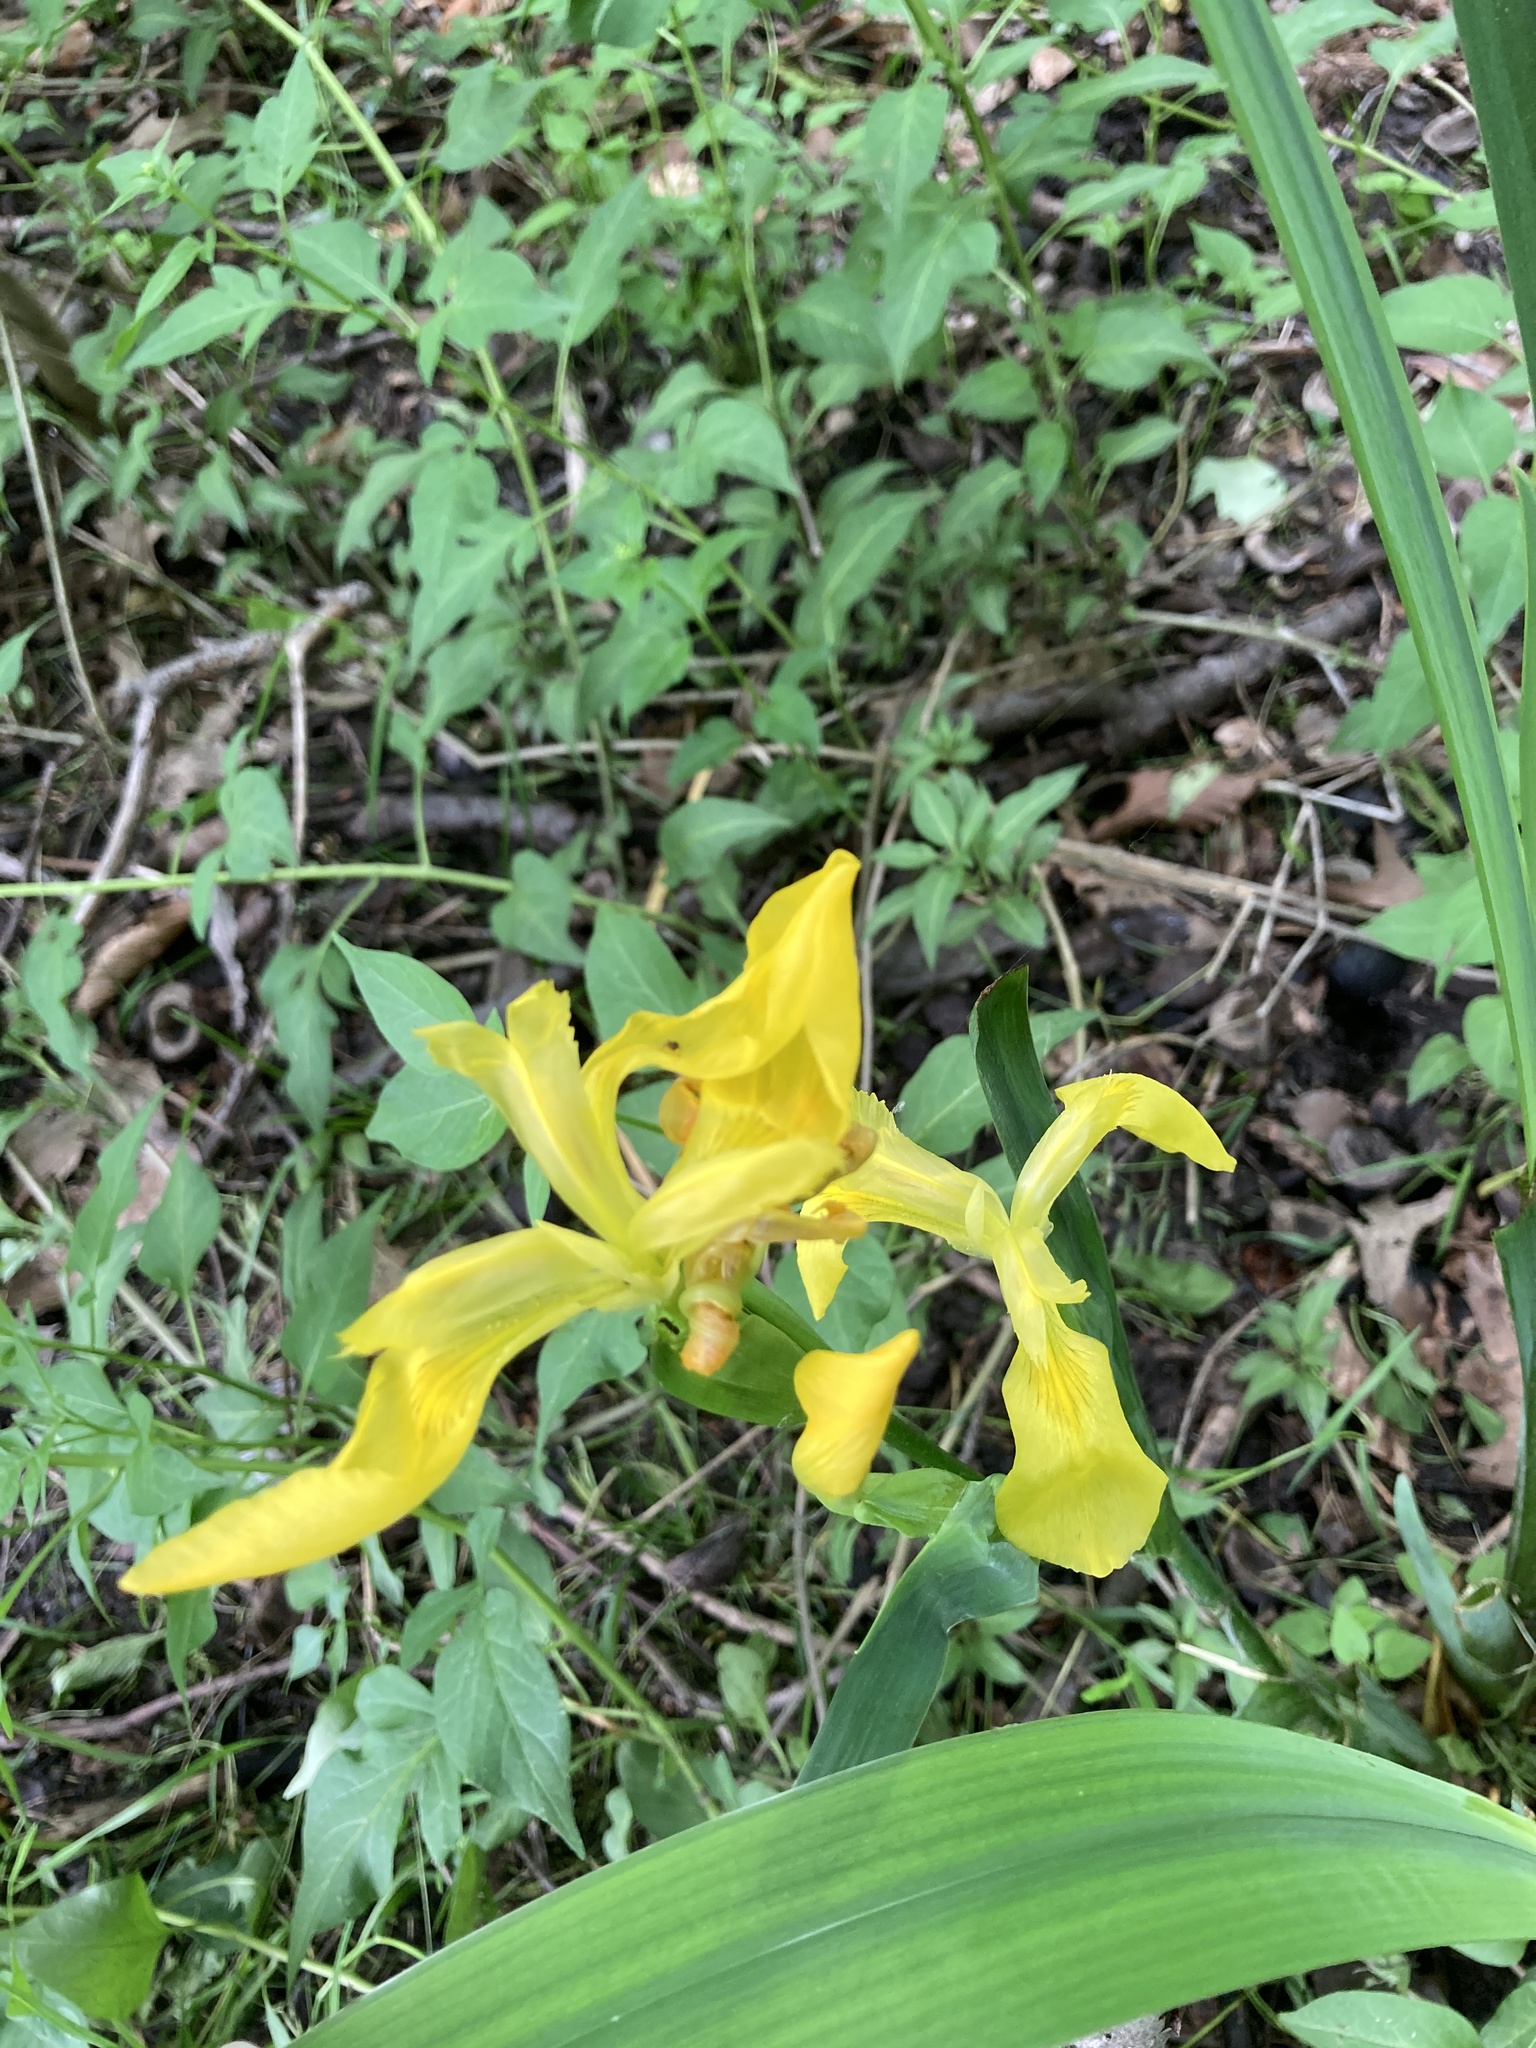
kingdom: Plantae
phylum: Tracheophyta
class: Liliopsida
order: Asparagales
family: Iridaceae
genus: Iris
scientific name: Iris pseudacorus
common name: Yellow flag
